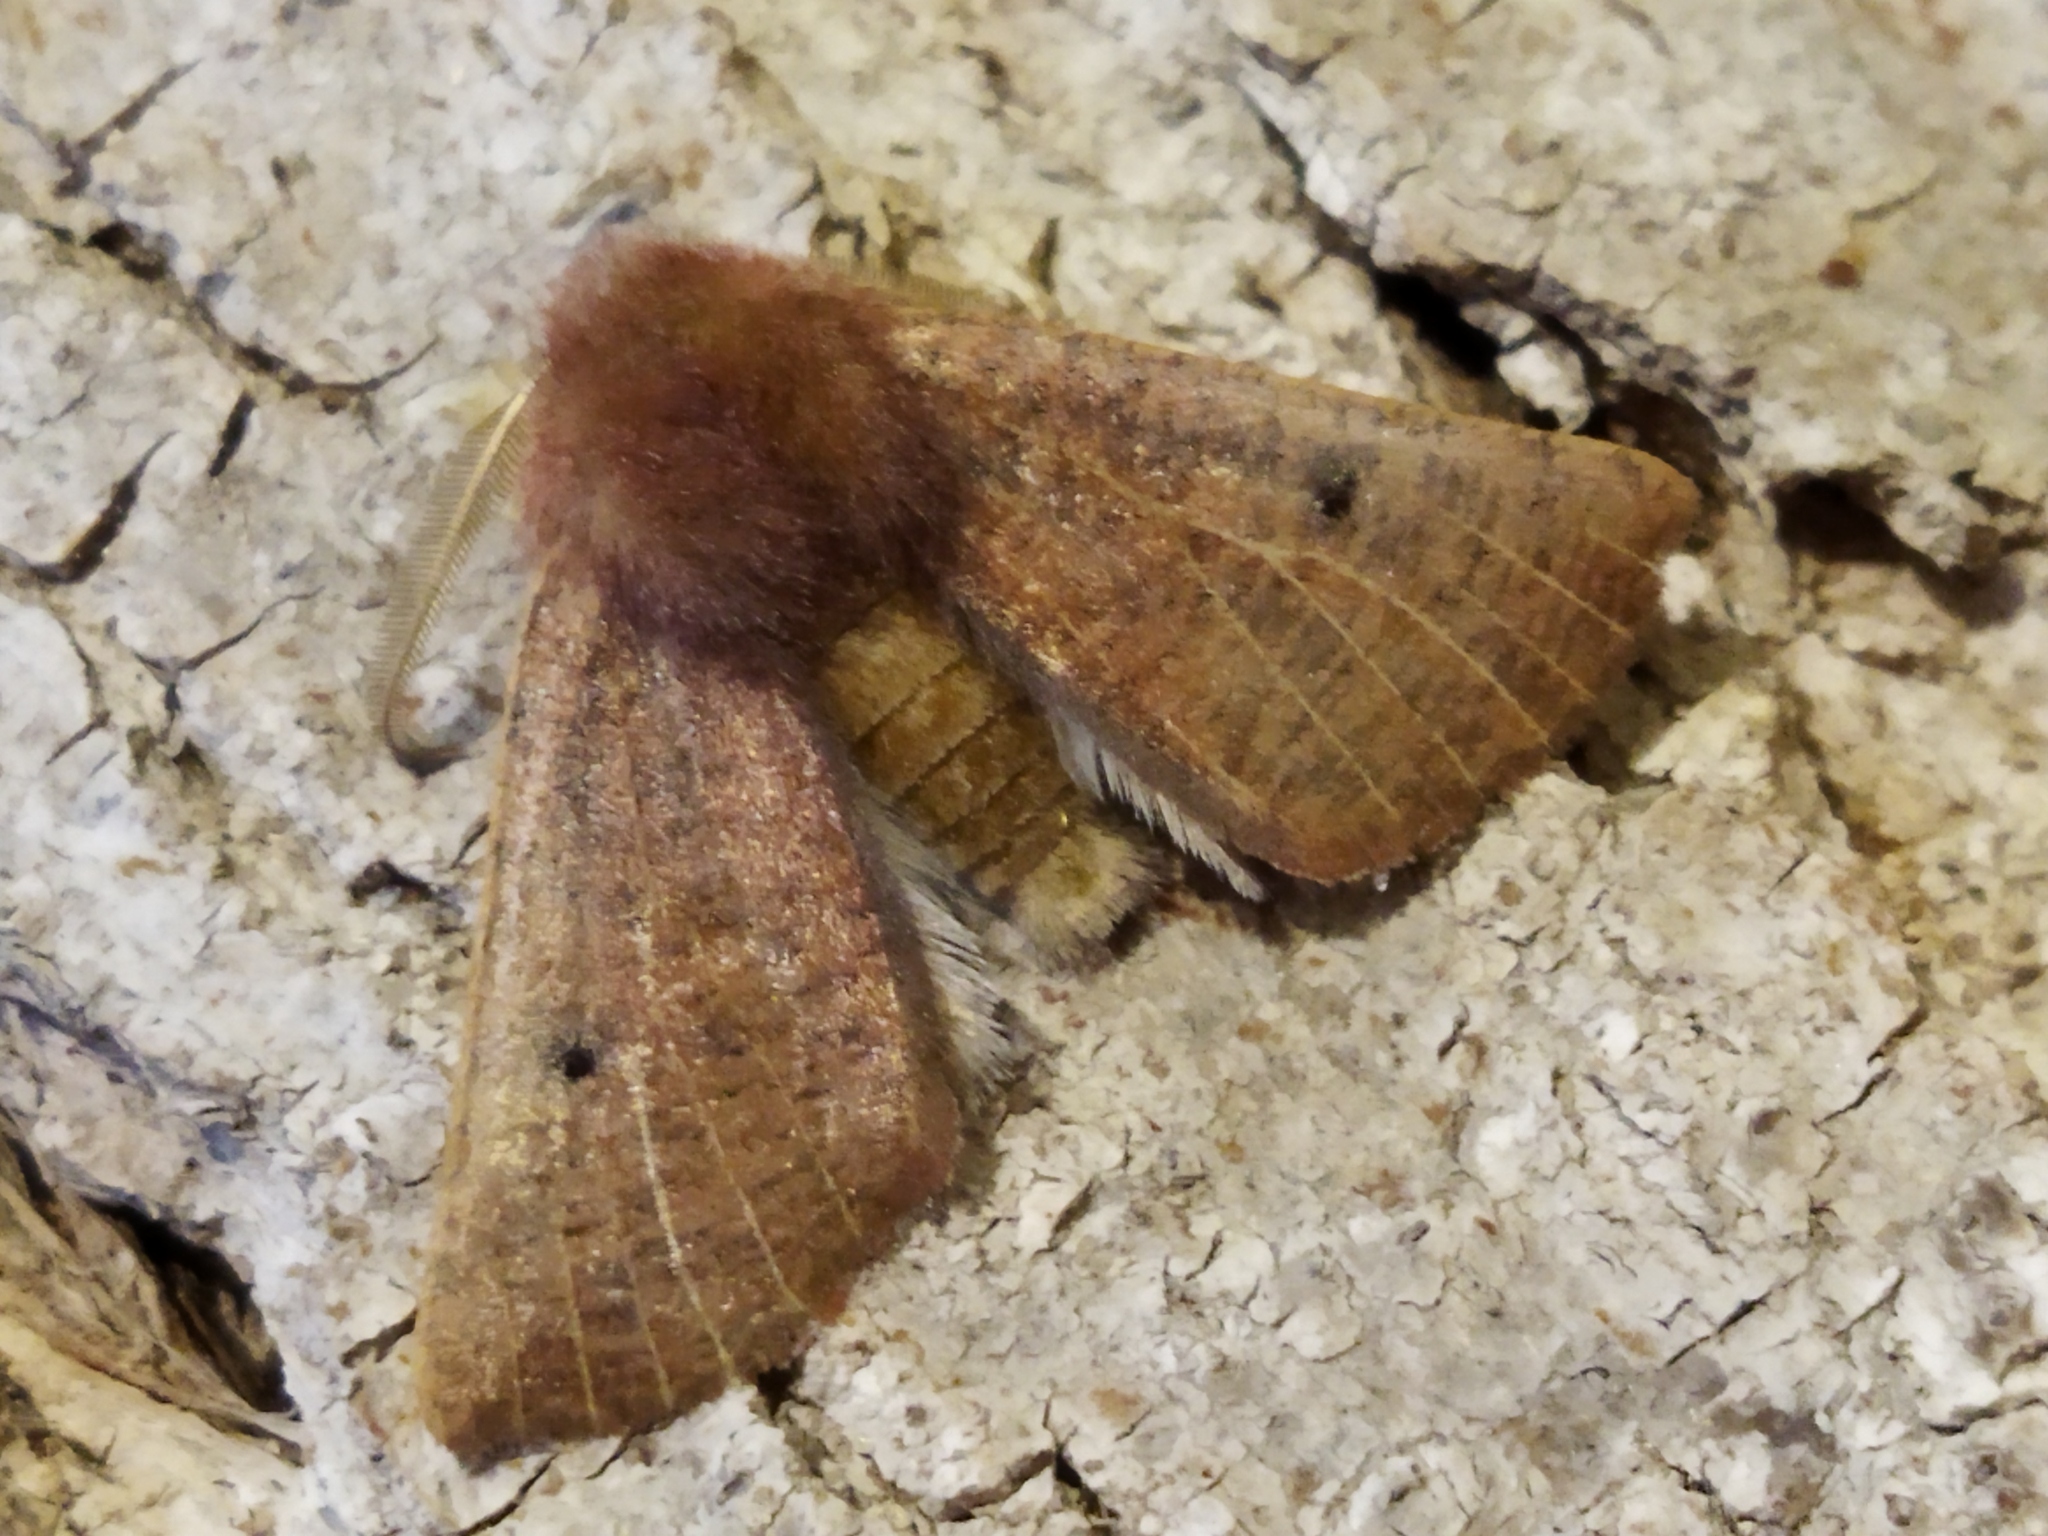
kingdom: Animalia
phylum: Arthropoda
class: Insecta
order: Lepidoptera
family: Geometridae
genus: Dasycorsa
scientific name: Dasycorsa modesta
